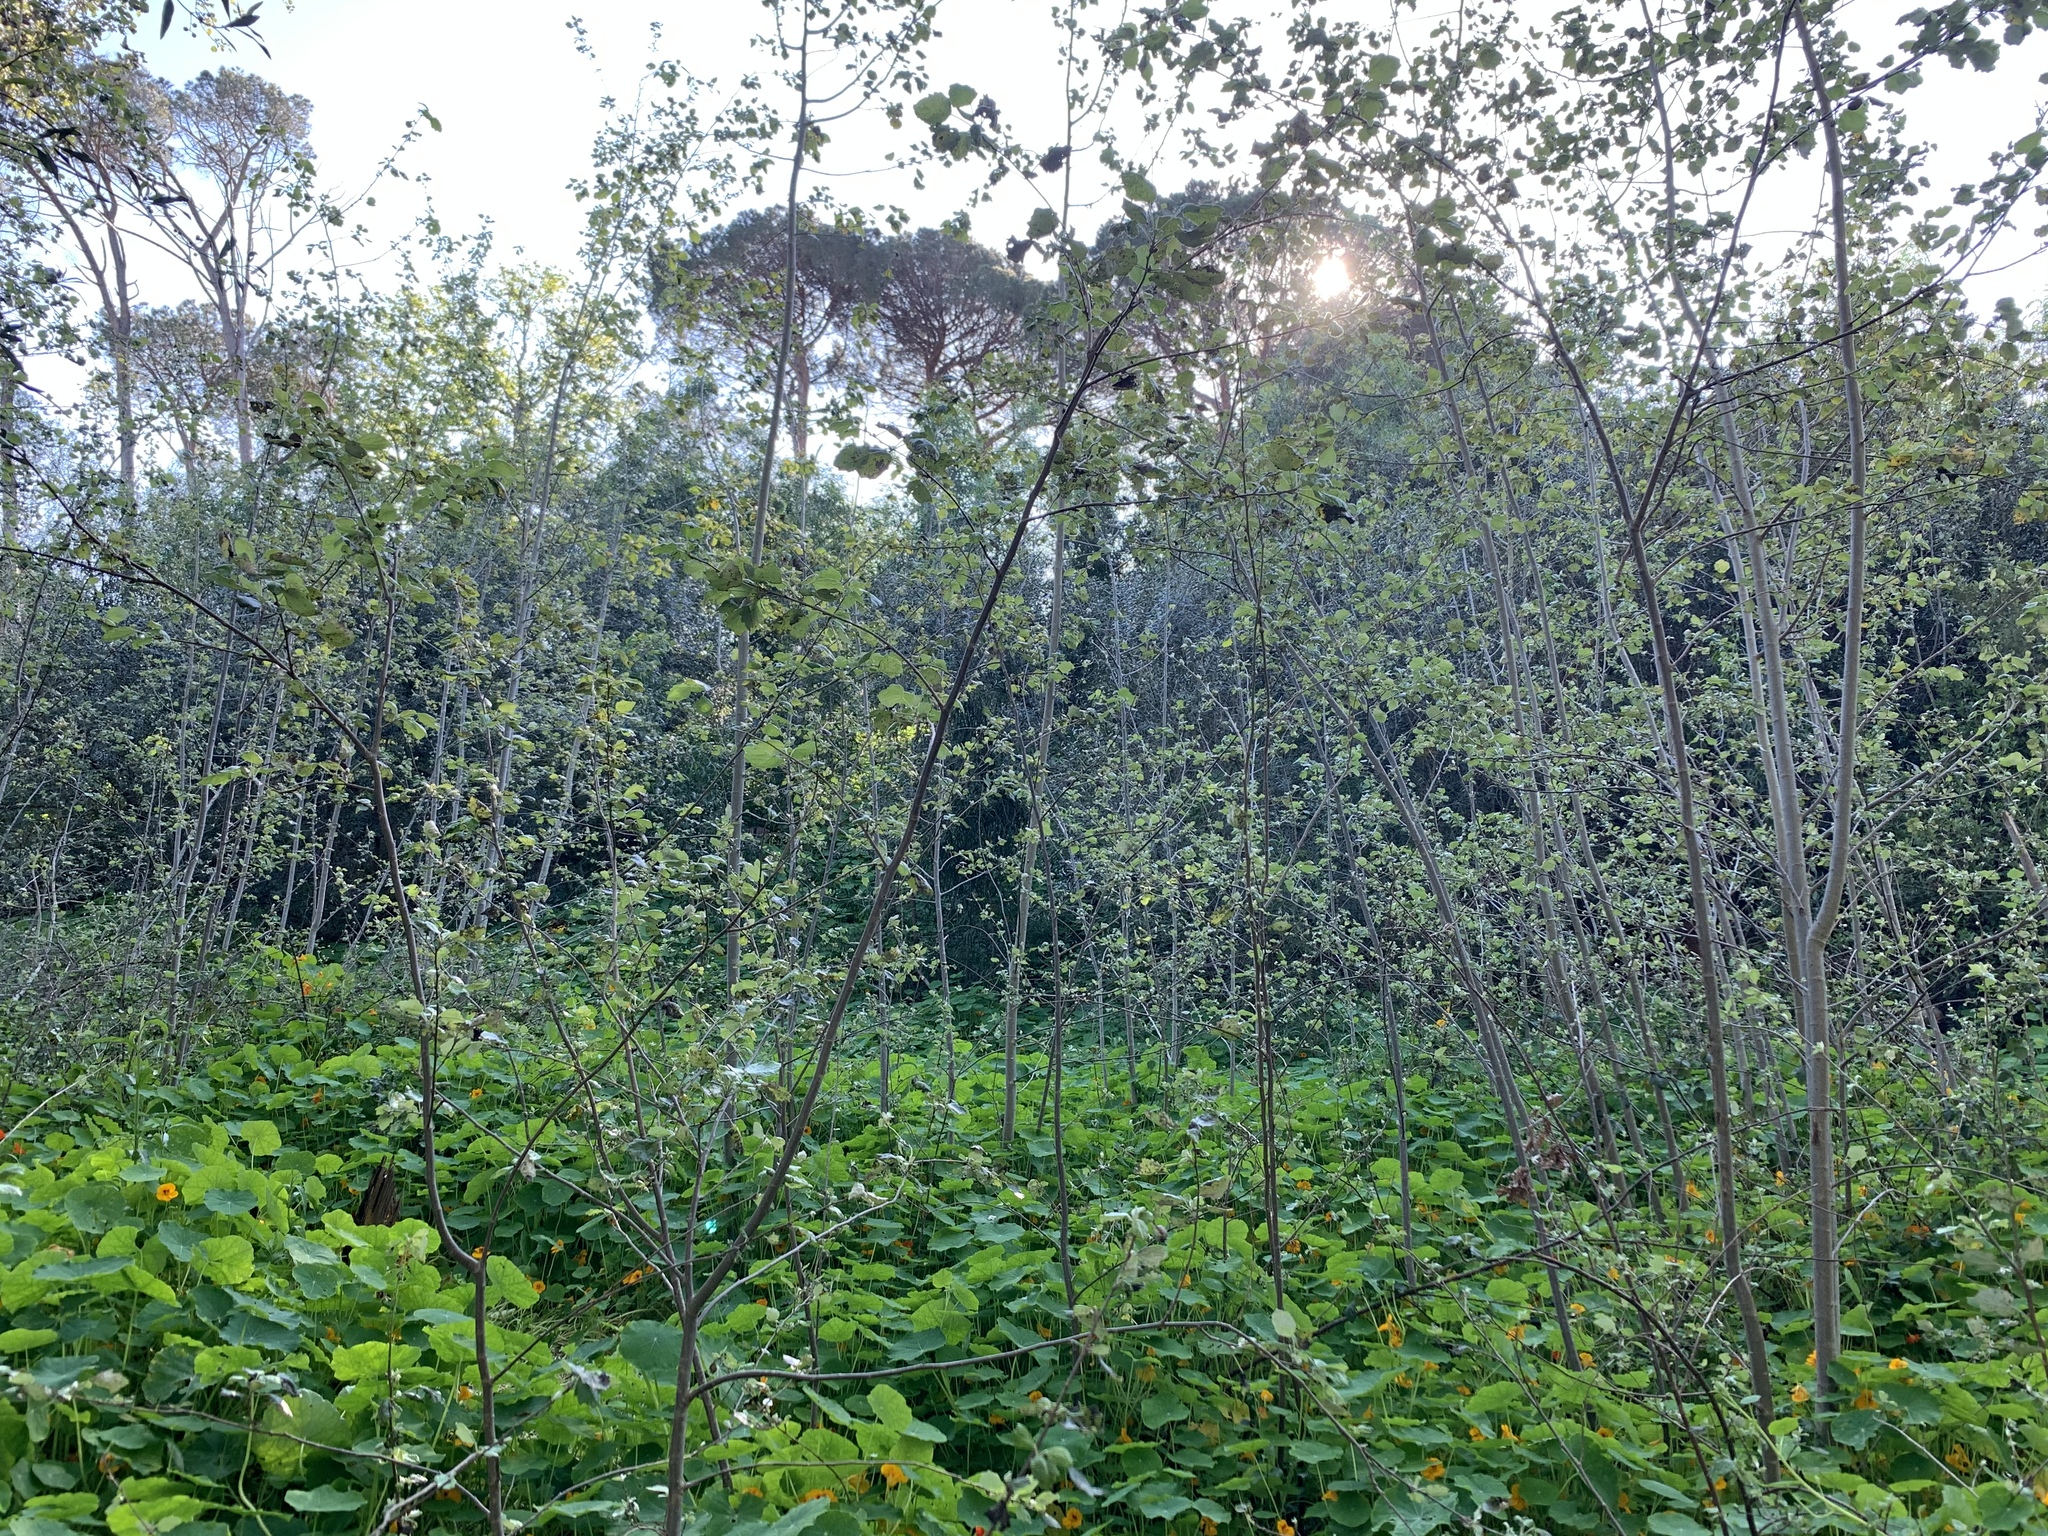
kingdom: Plantae
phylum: Tracheophyta
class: Magnoliopsida
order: Malpighiales
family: Salicaceae
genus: Populus
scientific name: Populus canescens
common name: Gray poplar
